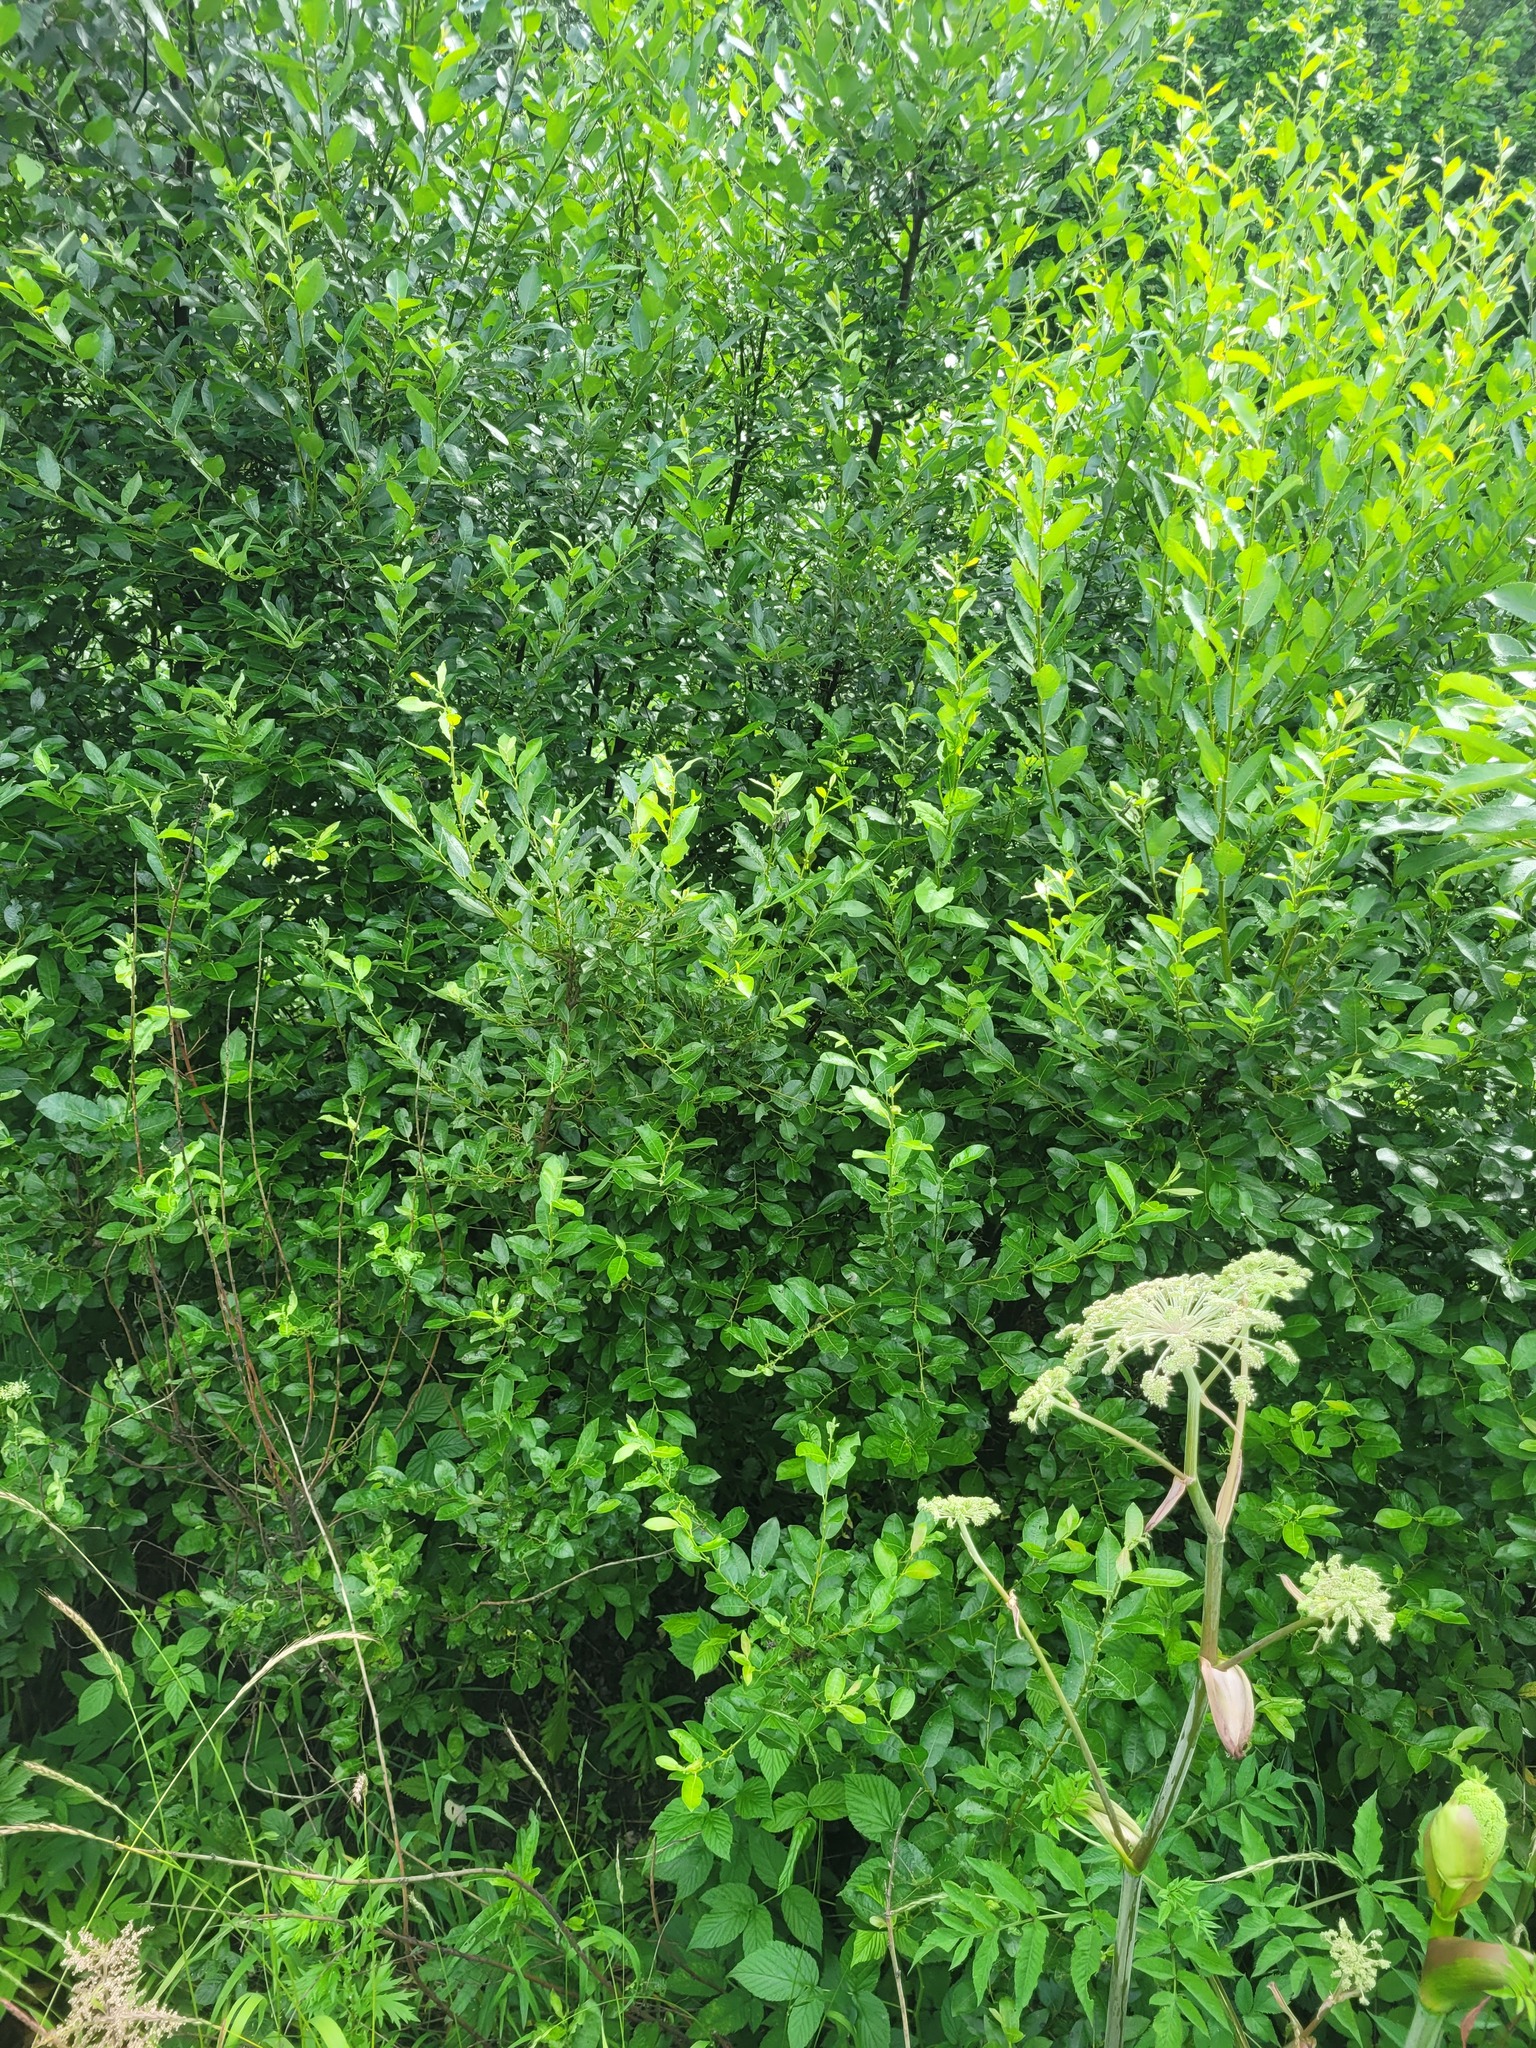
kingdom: Plantae
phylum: Tracheophyta
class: Magnoliopsida
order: Malpighiales
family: Salicaceae
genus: Salix
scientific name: Salix myrsinifolia
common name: Dark-leaved willow
